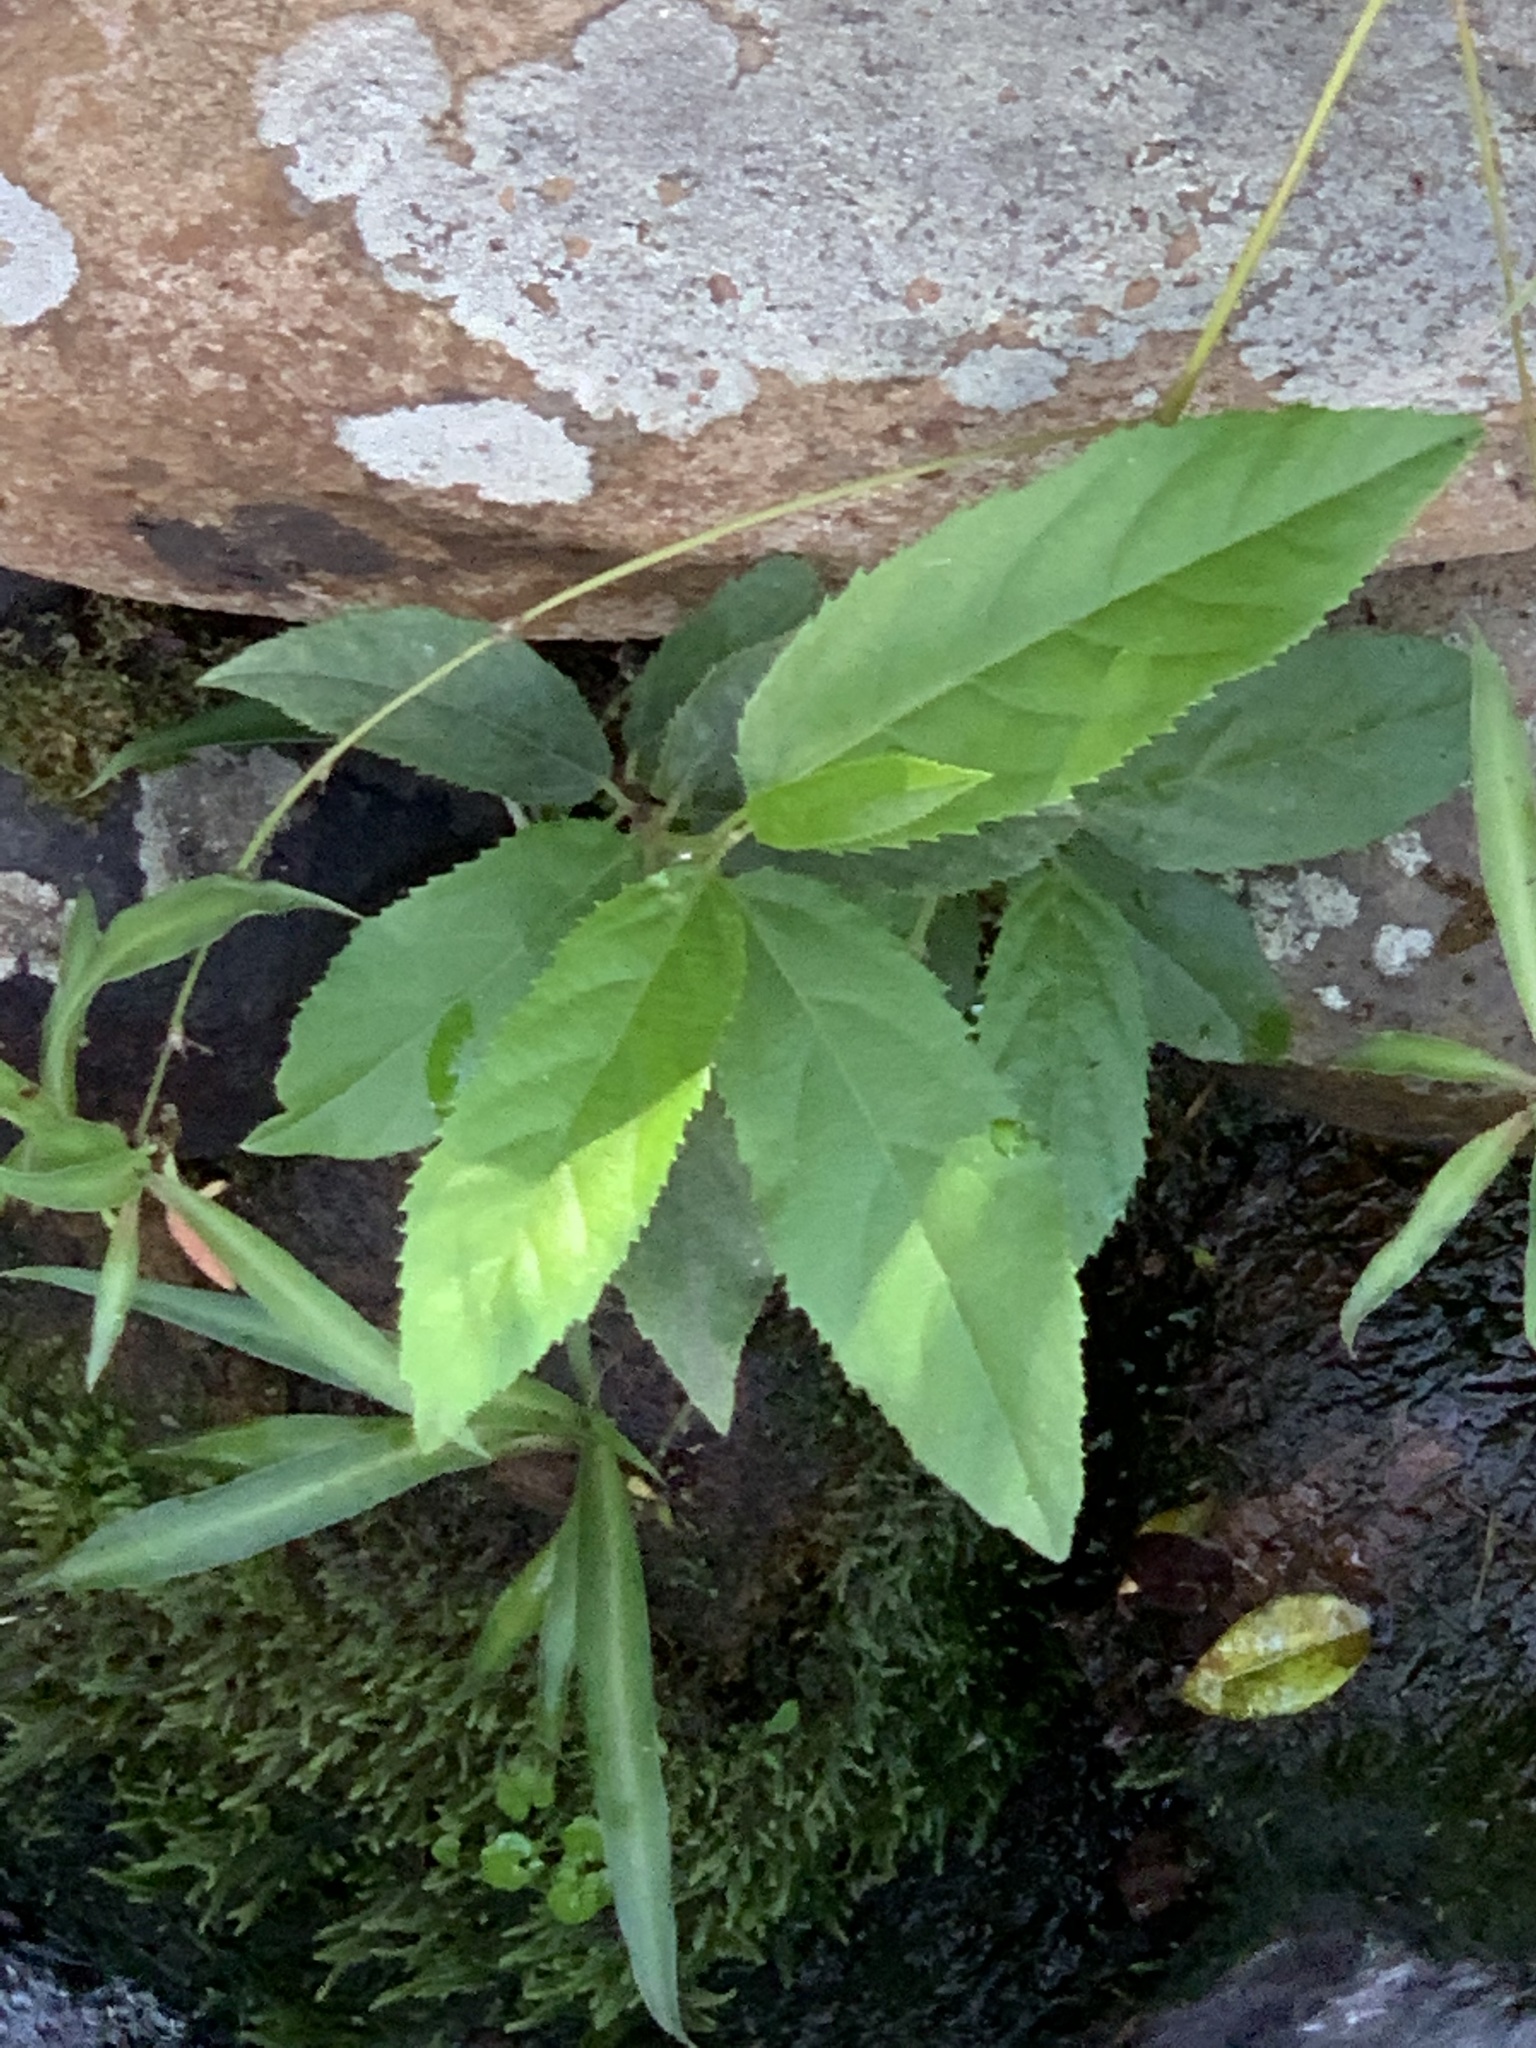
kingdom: Plantae
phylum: Tracheophyta
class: Magnoliopsida
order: Malpighiales
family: Achariaceae
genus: Kiggelaria
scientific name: Kiggelaria africana
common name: Wild peach
